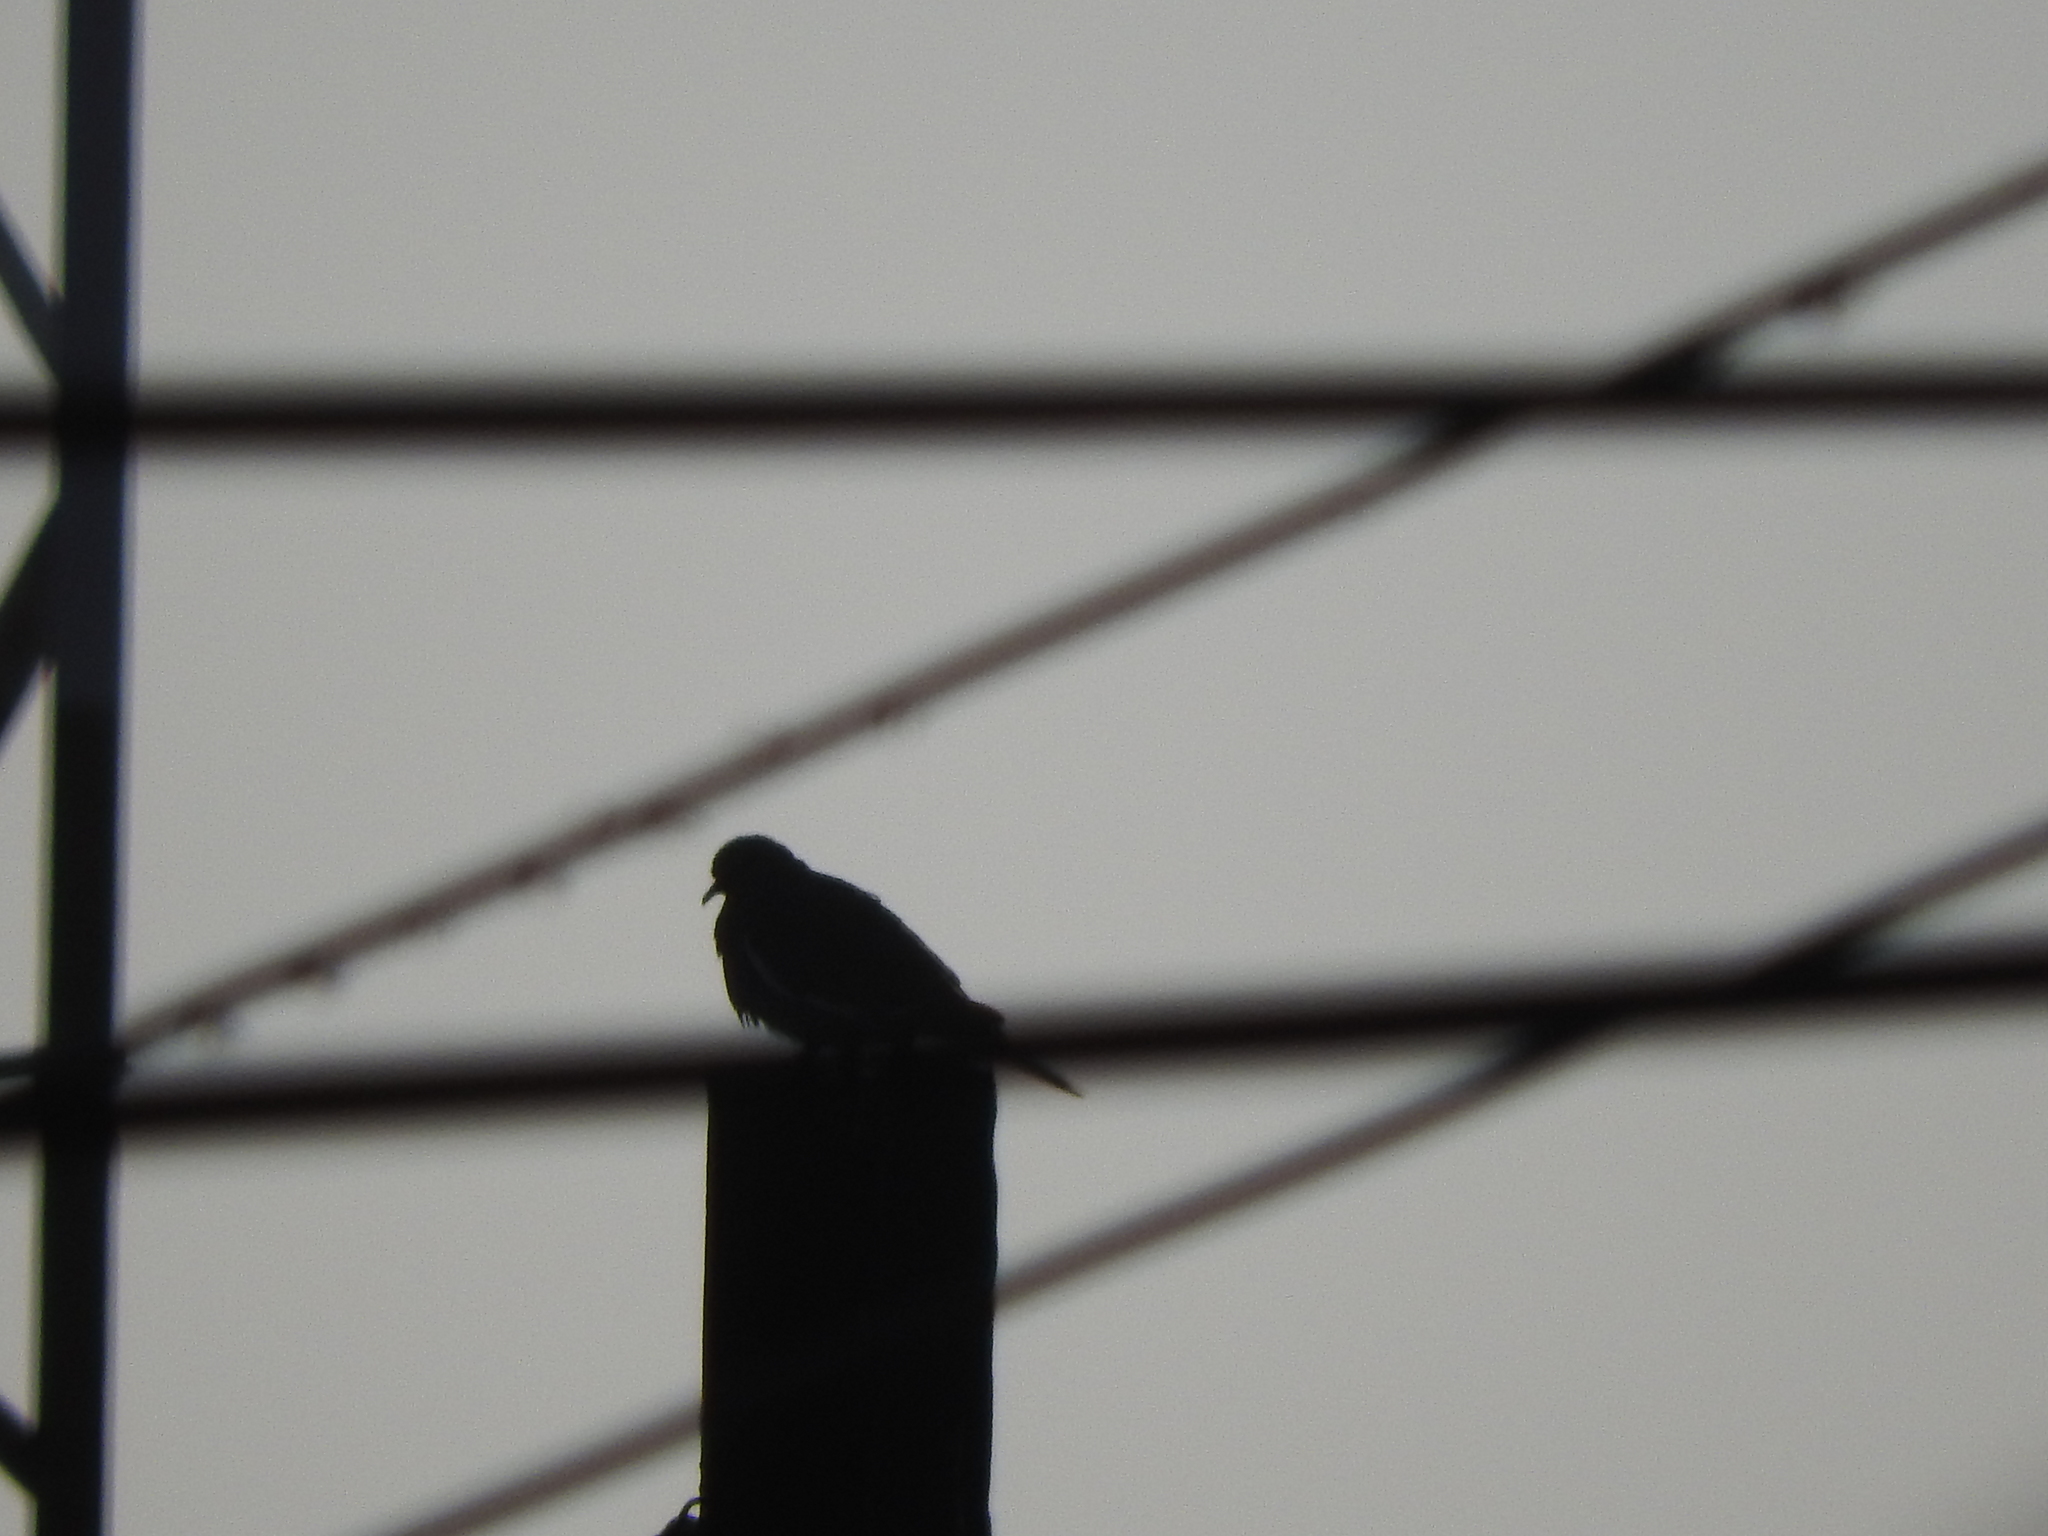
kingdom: Animalia
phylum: Chordata
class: Aves
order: Columbiformes
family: Columbidae
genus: Zenaida
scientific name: Zenaida asiatica
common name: White-winged dove
